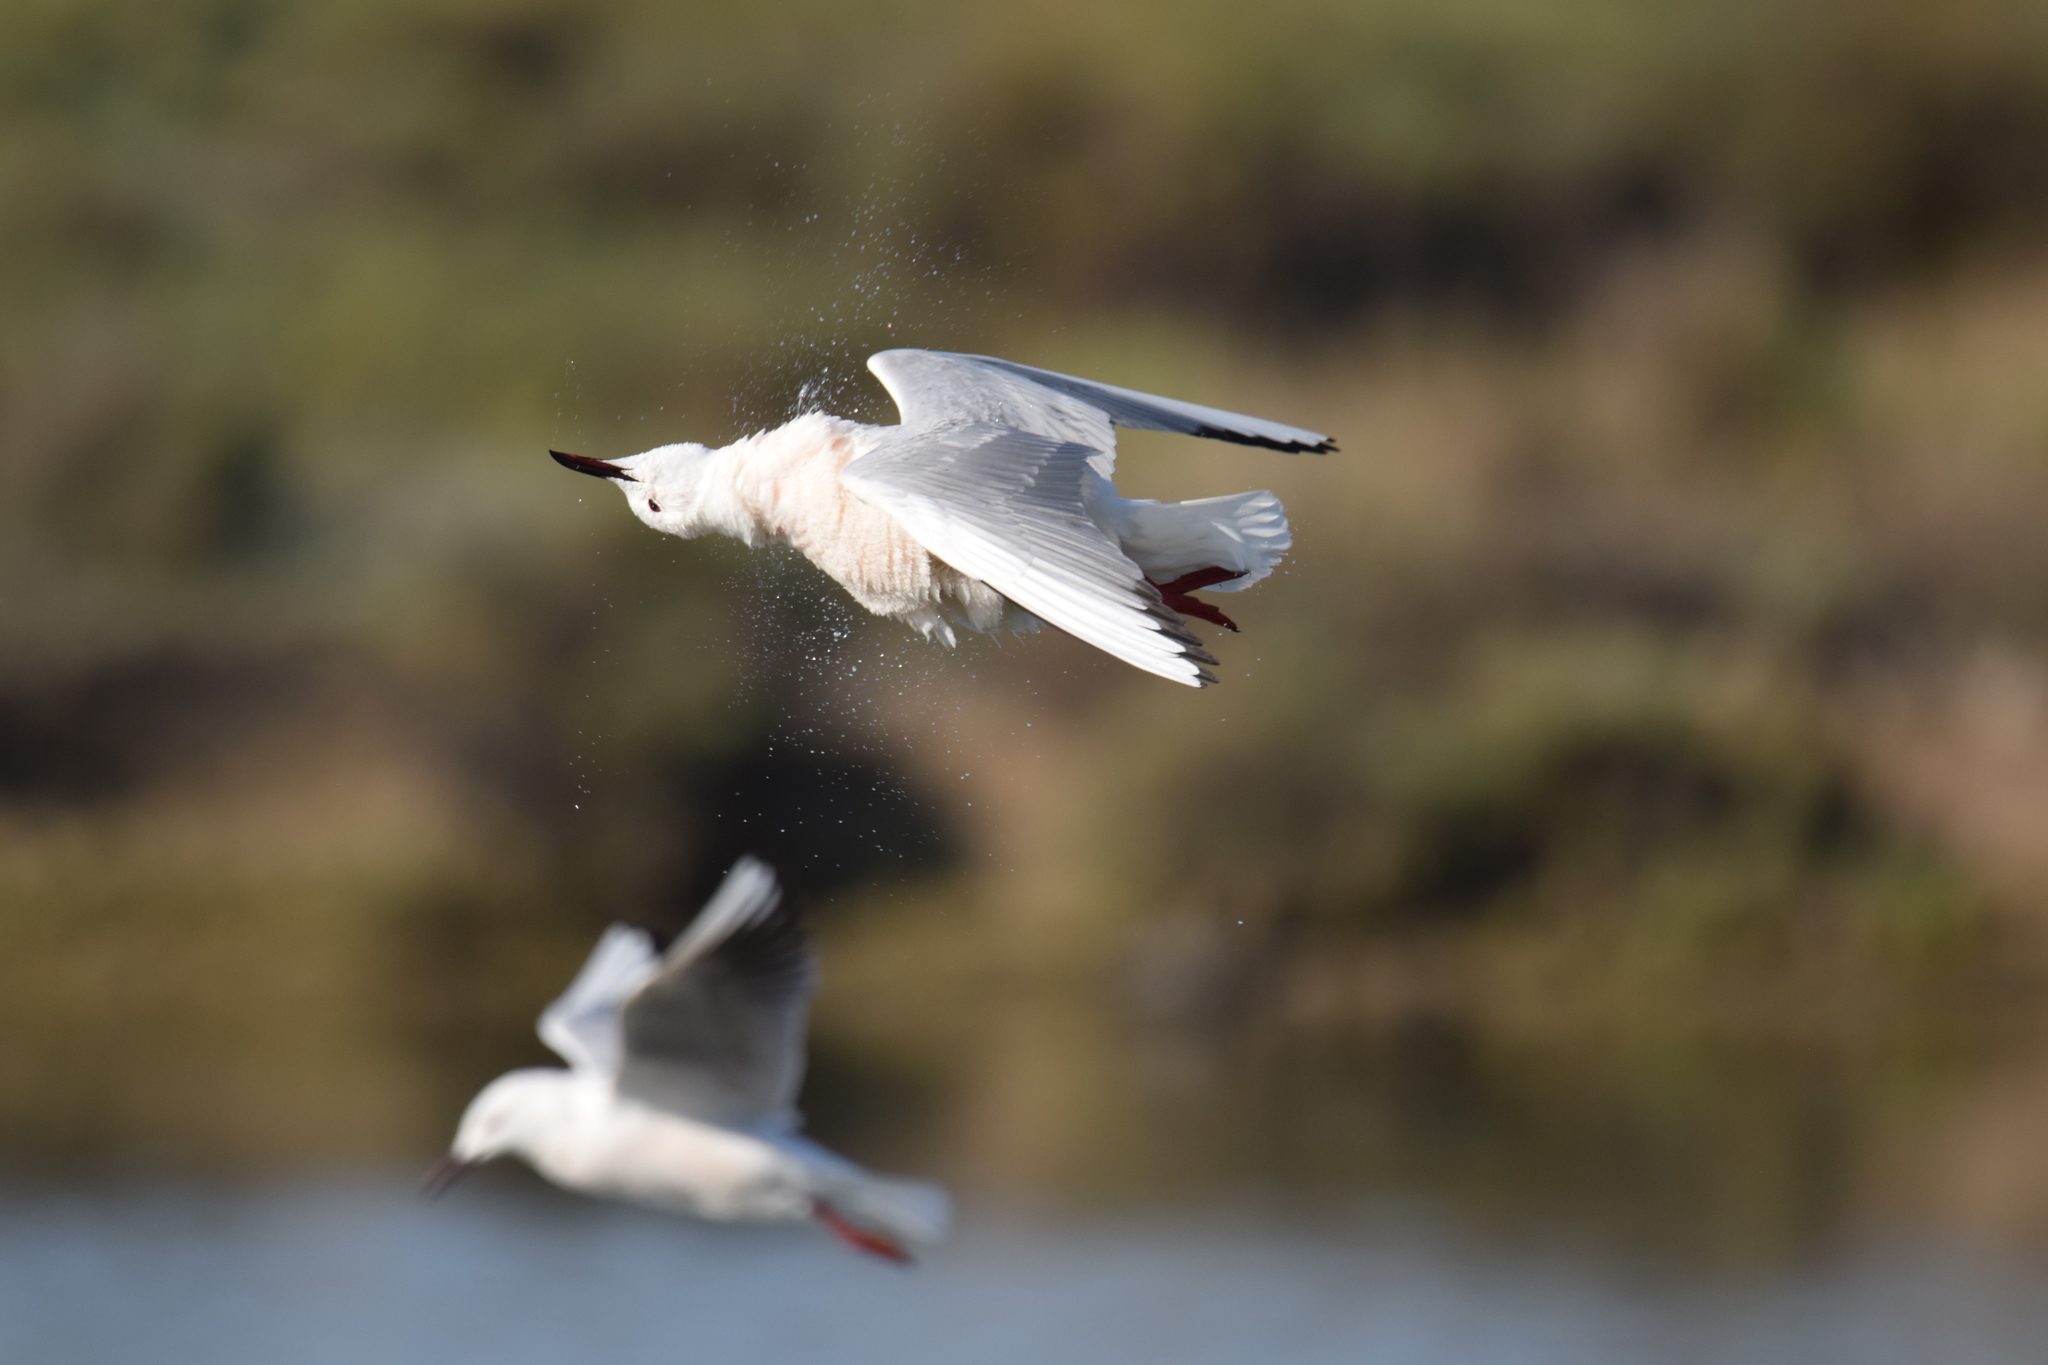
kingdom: Animalia
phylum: Chordata
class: Aves
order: Charadriiformes
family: Laridae
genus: Chroicocephalus
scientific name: Chroicocephalus genei
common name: Slender-billed gull
